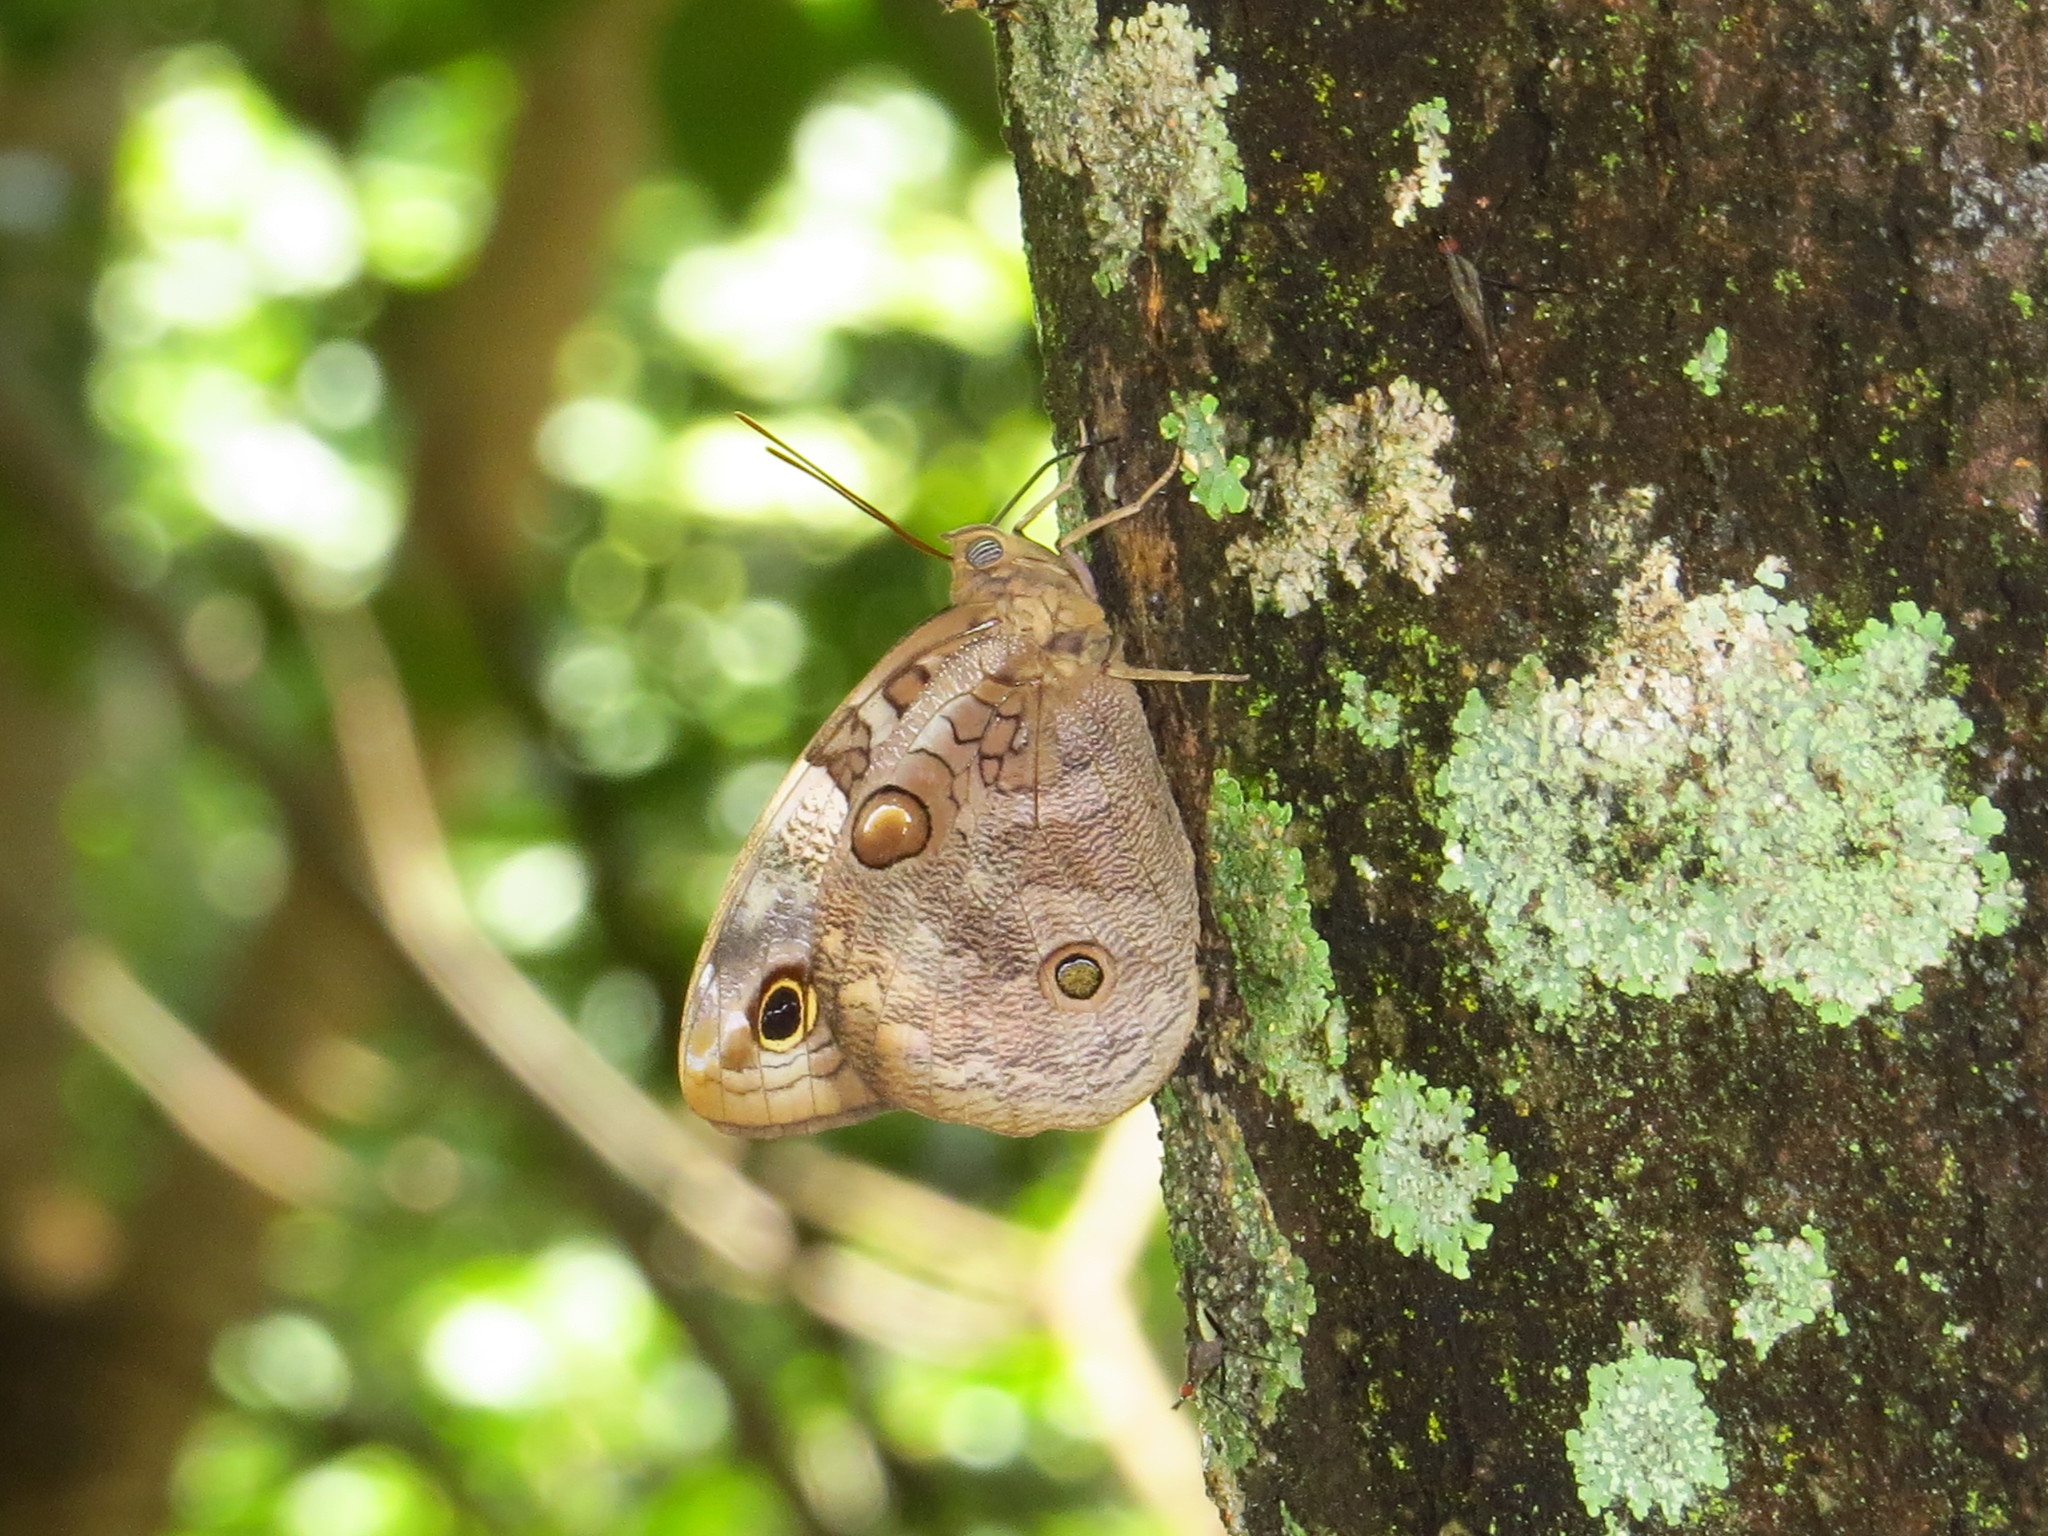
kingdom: Animalia
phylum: Arthropoda
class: Insecta
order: Lepidoptera
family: Nymphalidae
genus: Opsiphanes
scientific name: Opsiphanes cassina
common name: Split-banded owl-butterfly
